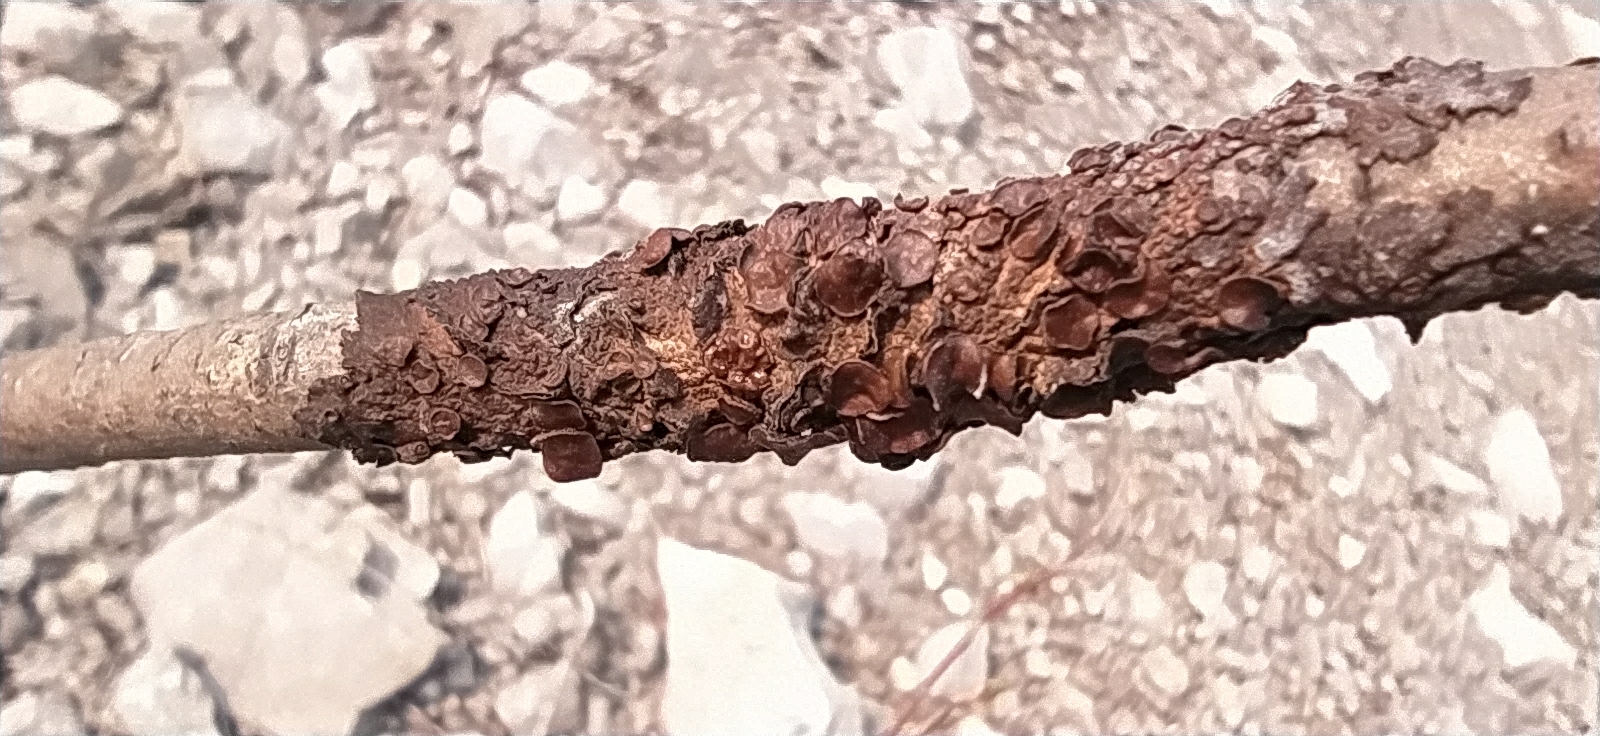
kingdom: Fungi
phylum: Ascomycota
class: Lecanoromycetes
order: Lecanorales
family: Parmeliaceae
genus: Melanohalea
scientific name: Melanohalea olivacea
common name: Spotted camouflage lichen
